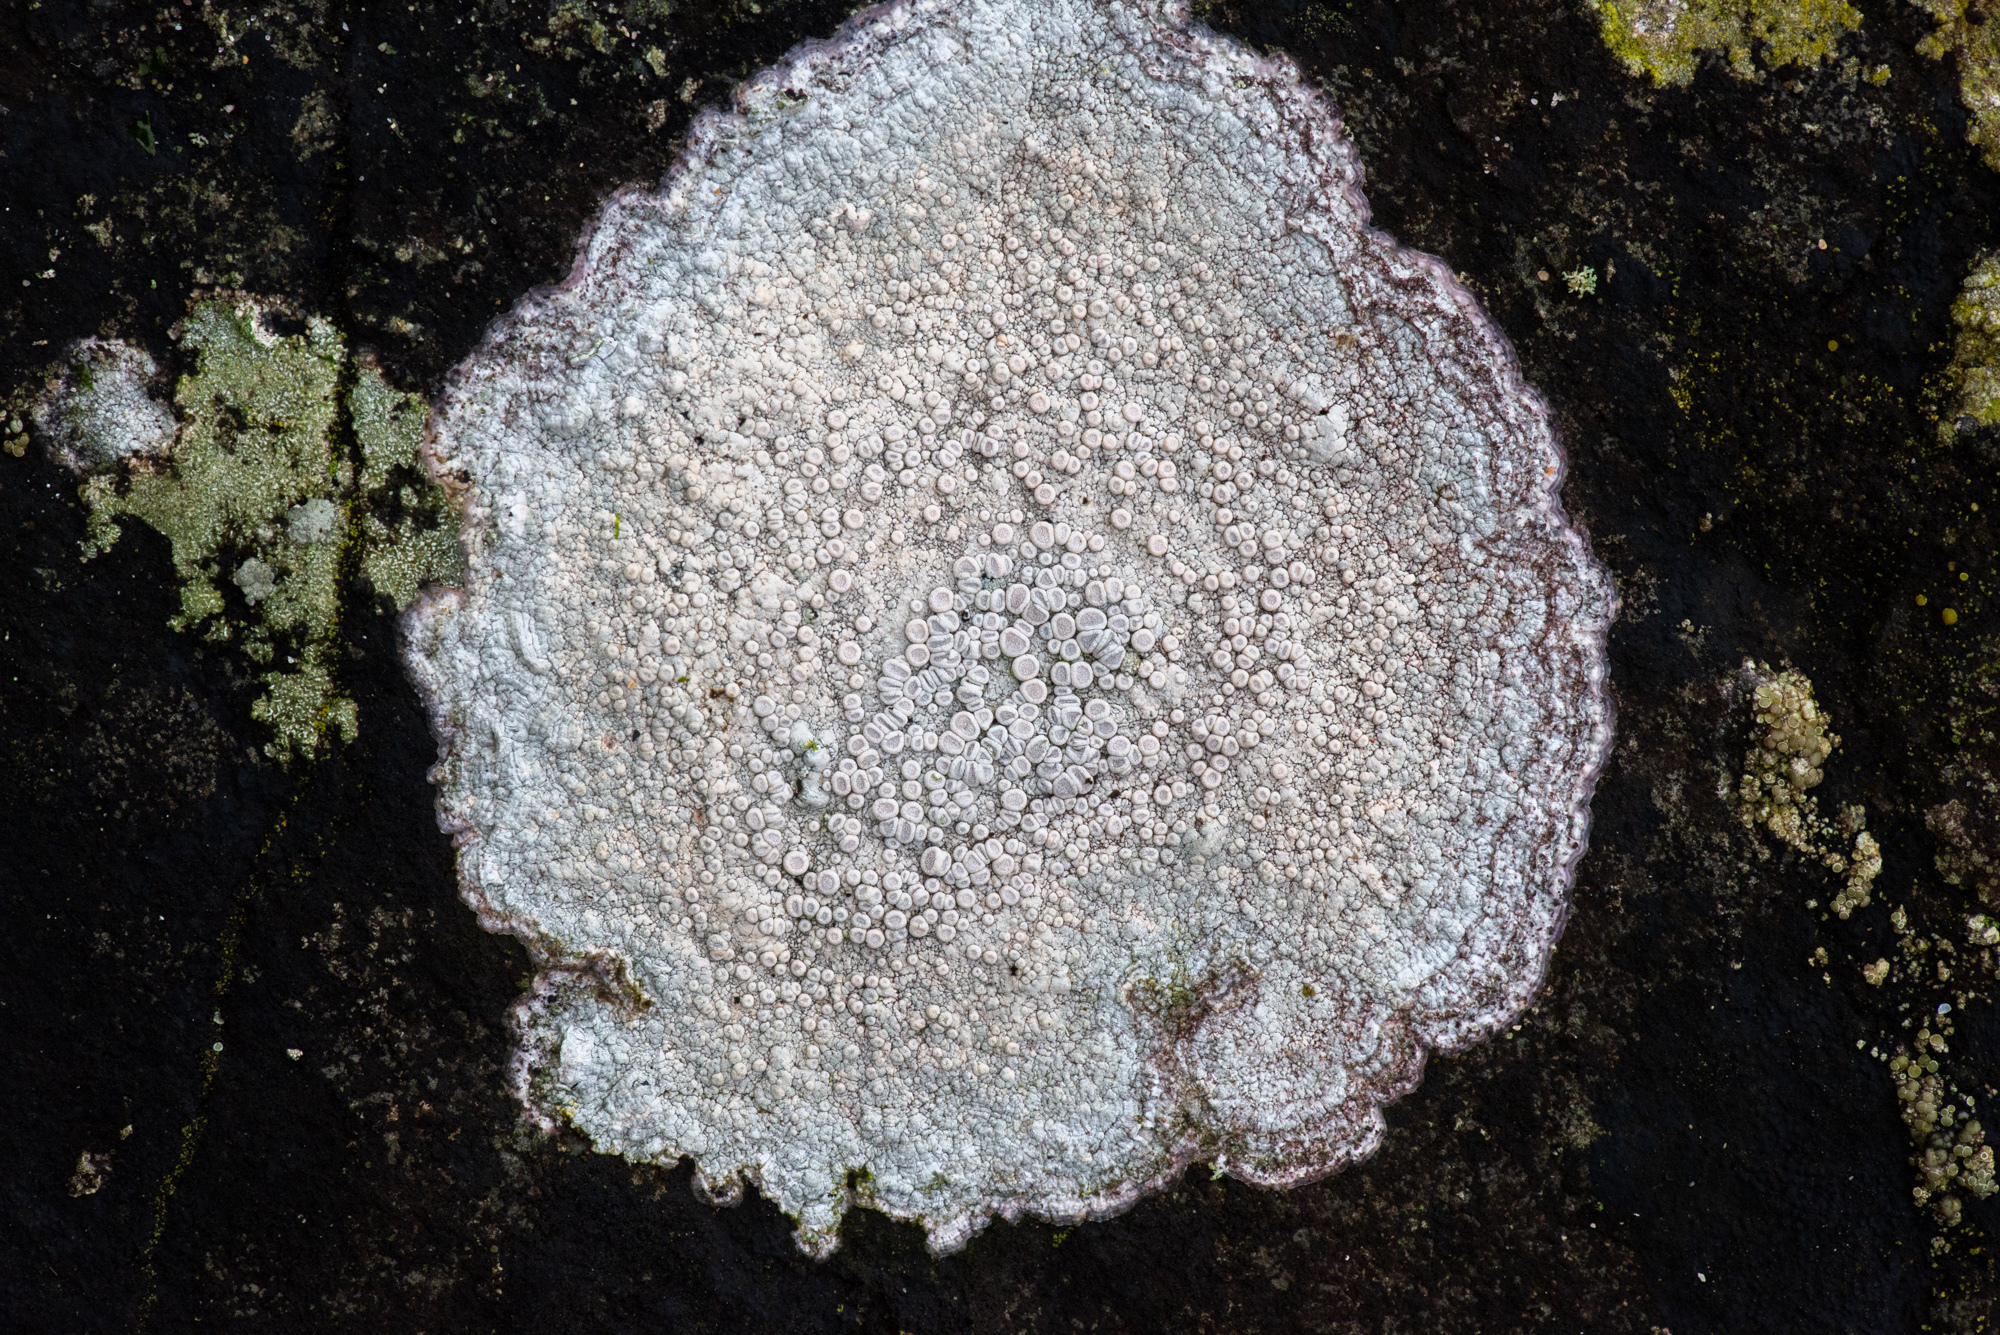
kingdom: Fungi
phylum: Ascomycota
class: Lecanoromycetes
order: Pertusariales
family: Ochrolechiaceae
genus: Ochrolechia
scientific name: Ochrolechia parella
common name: Crab's eye lichen
